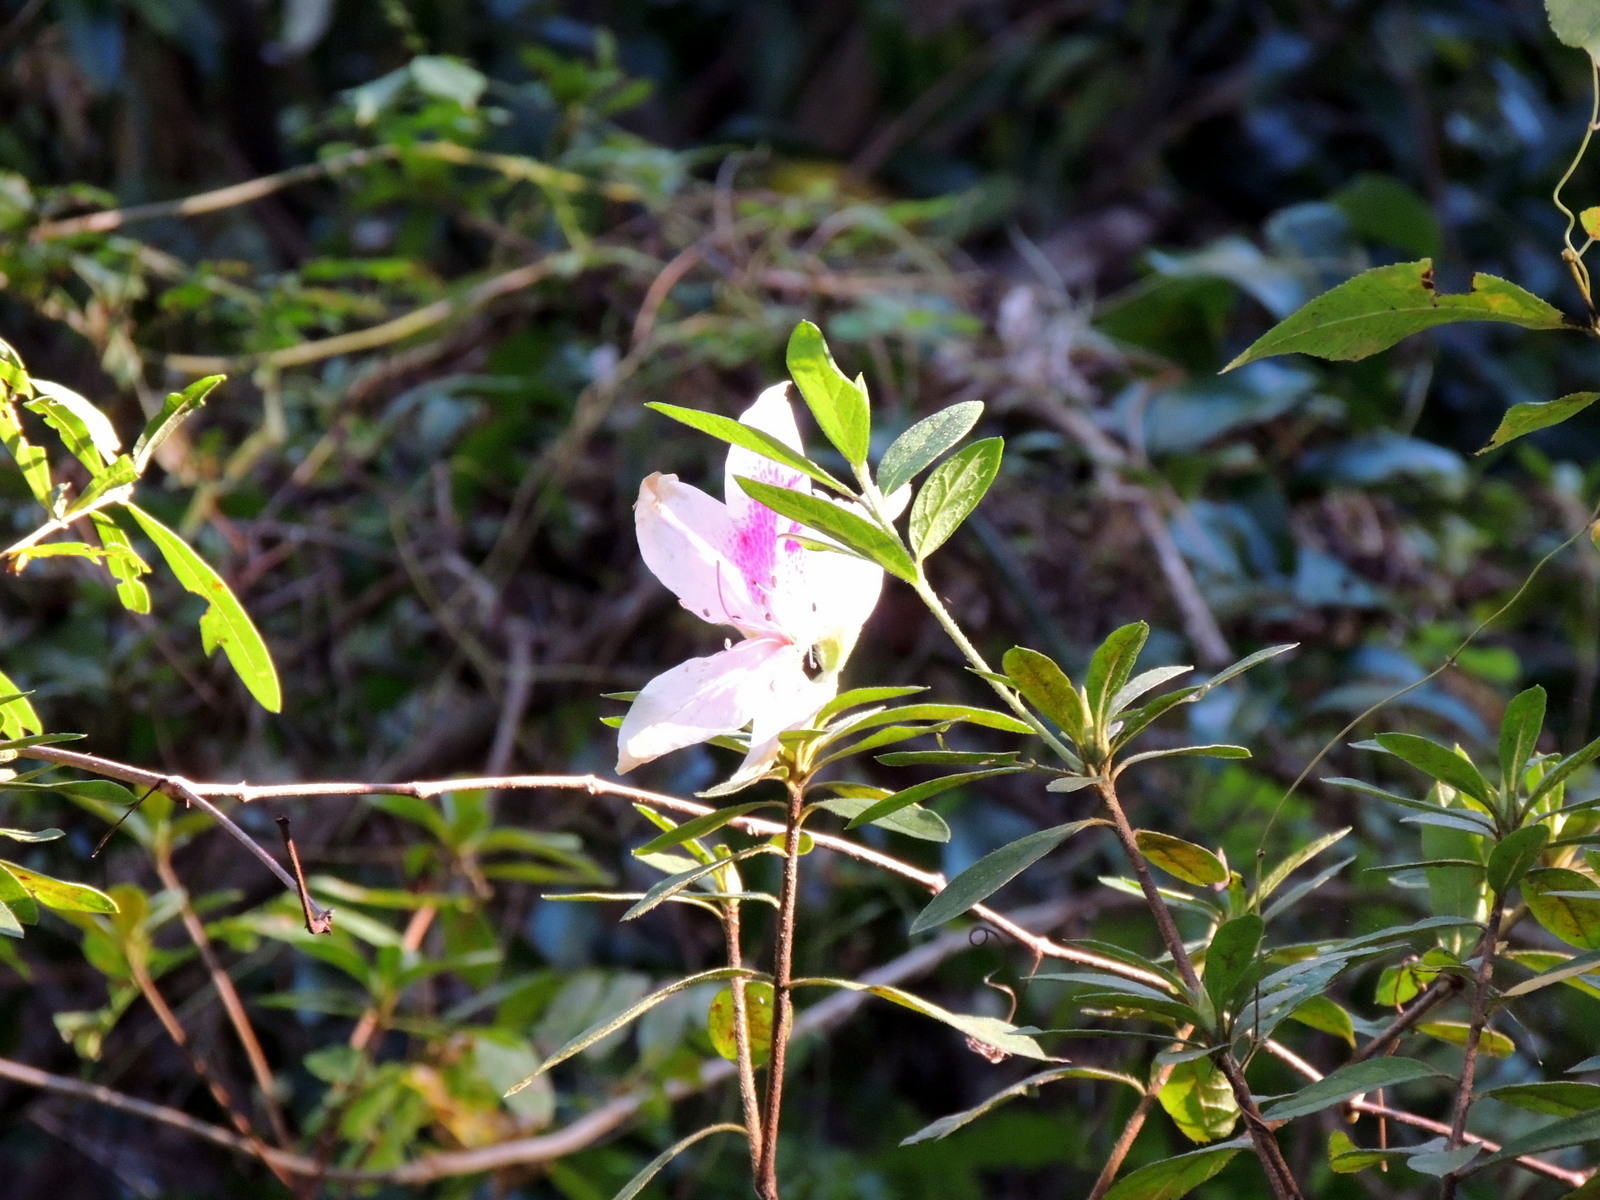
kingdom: Plantae
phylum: Tracheophyta
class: Magnoliopsida
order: Ericales
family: Ericaceae
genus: Rhododendron
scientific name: Rhododendron indicum
